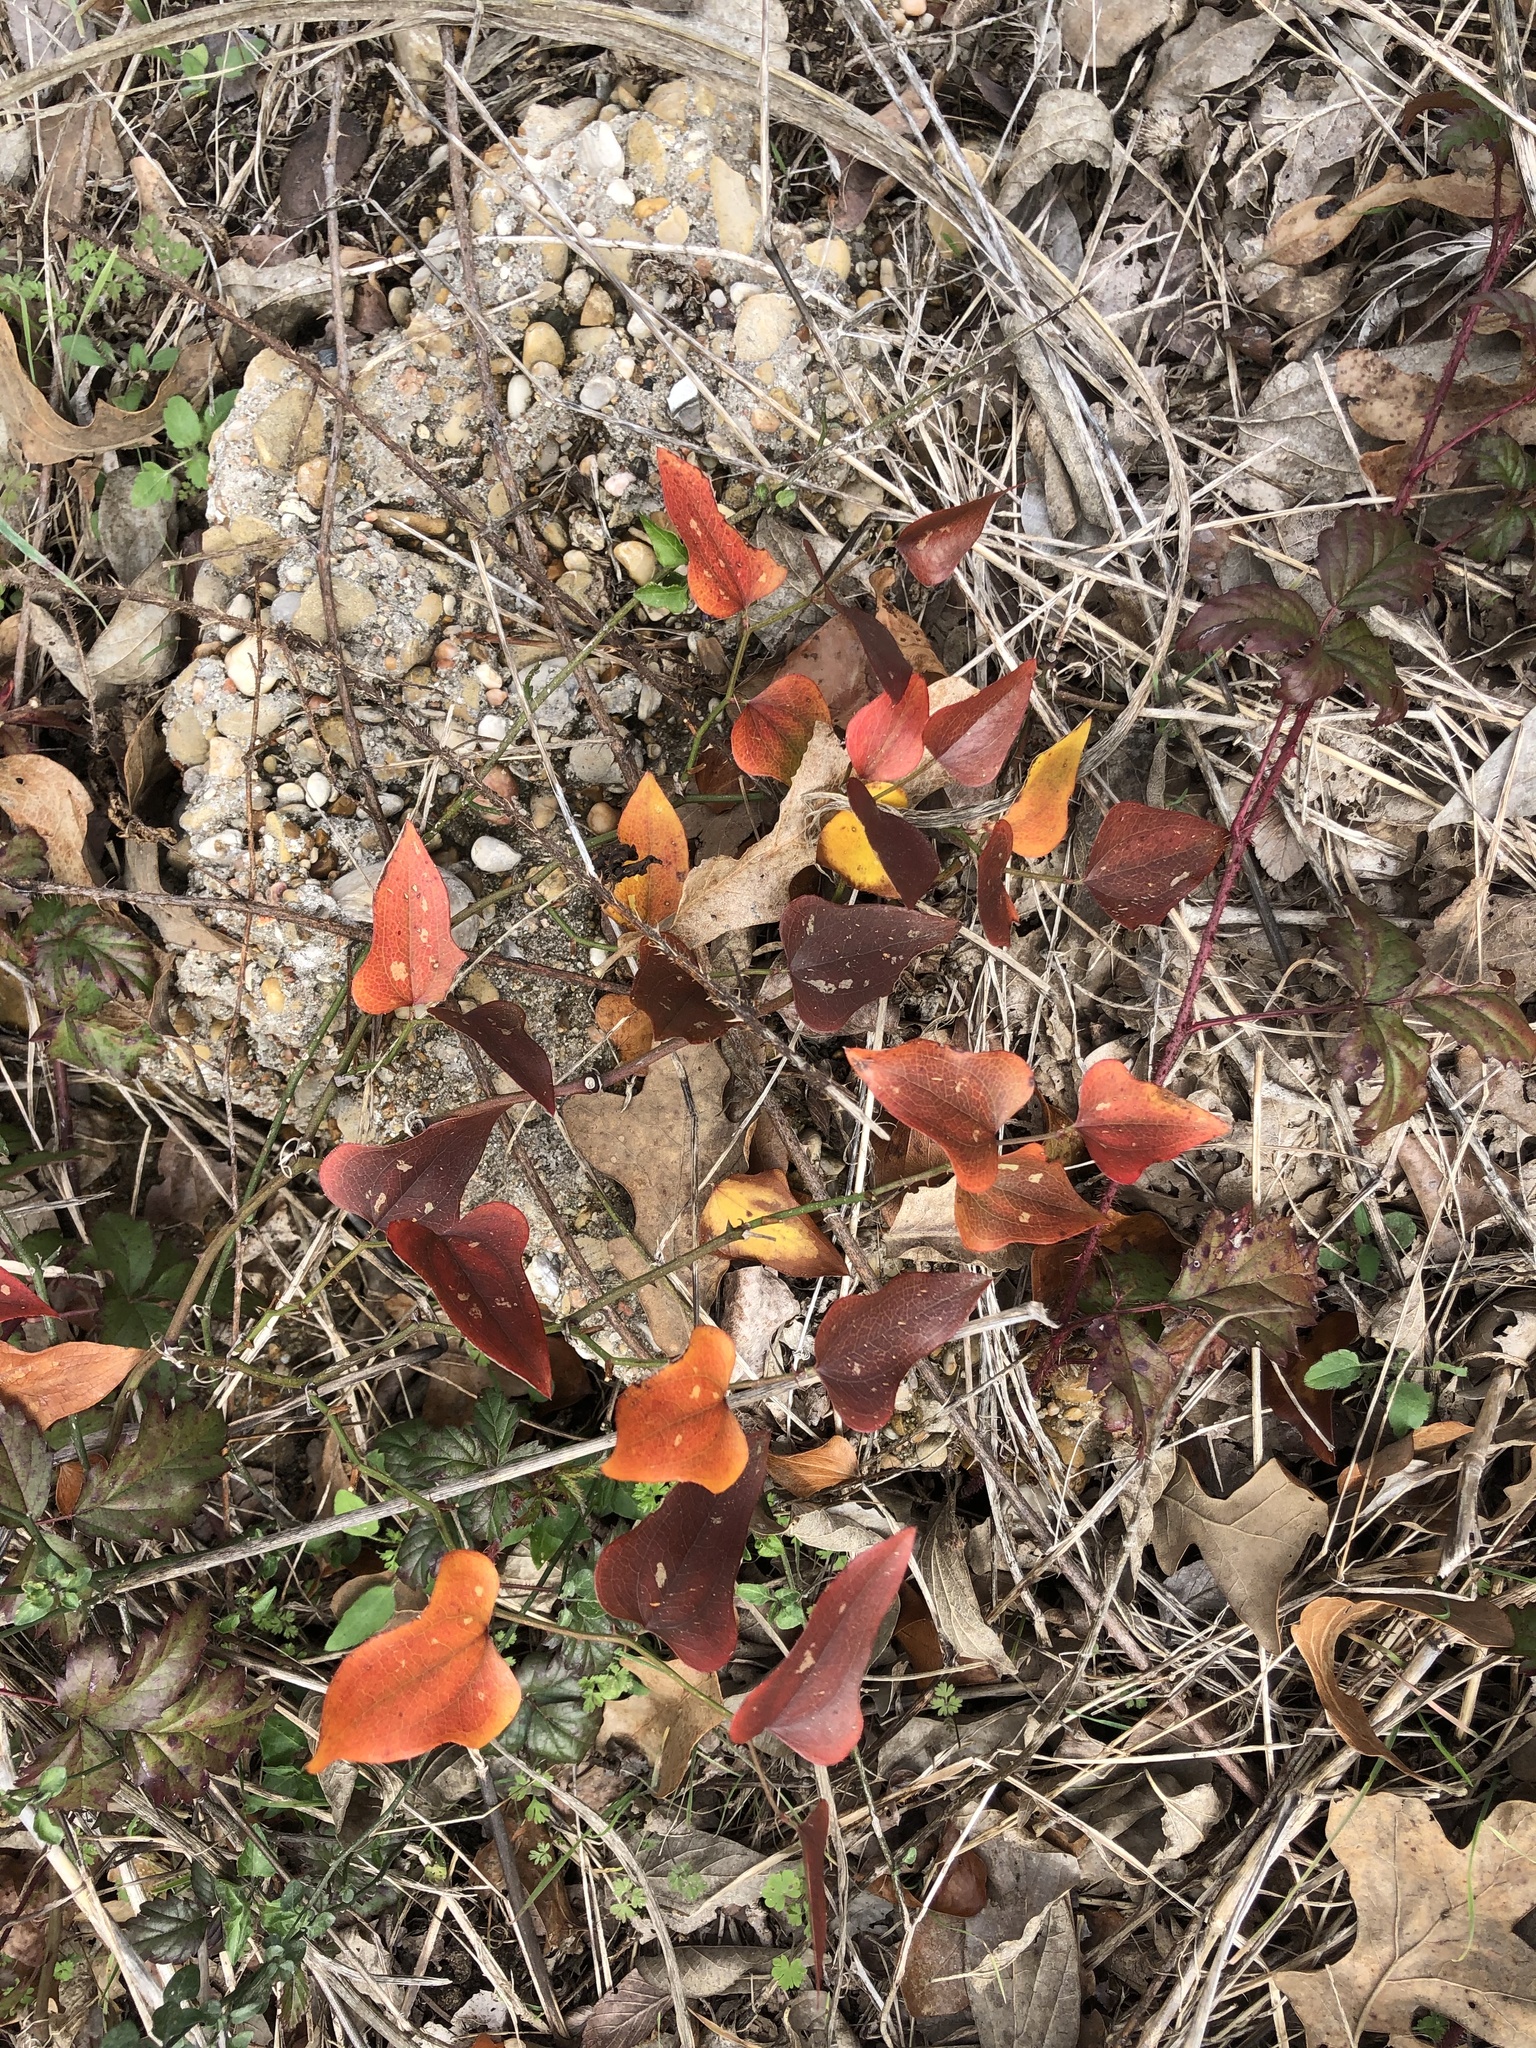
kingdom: Plantae
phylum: Tracheophyta
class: Liliopsida
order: Liliales
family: Smilacaceae
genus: Smilax
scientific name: Smilax bona-nox
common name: Catbrier
